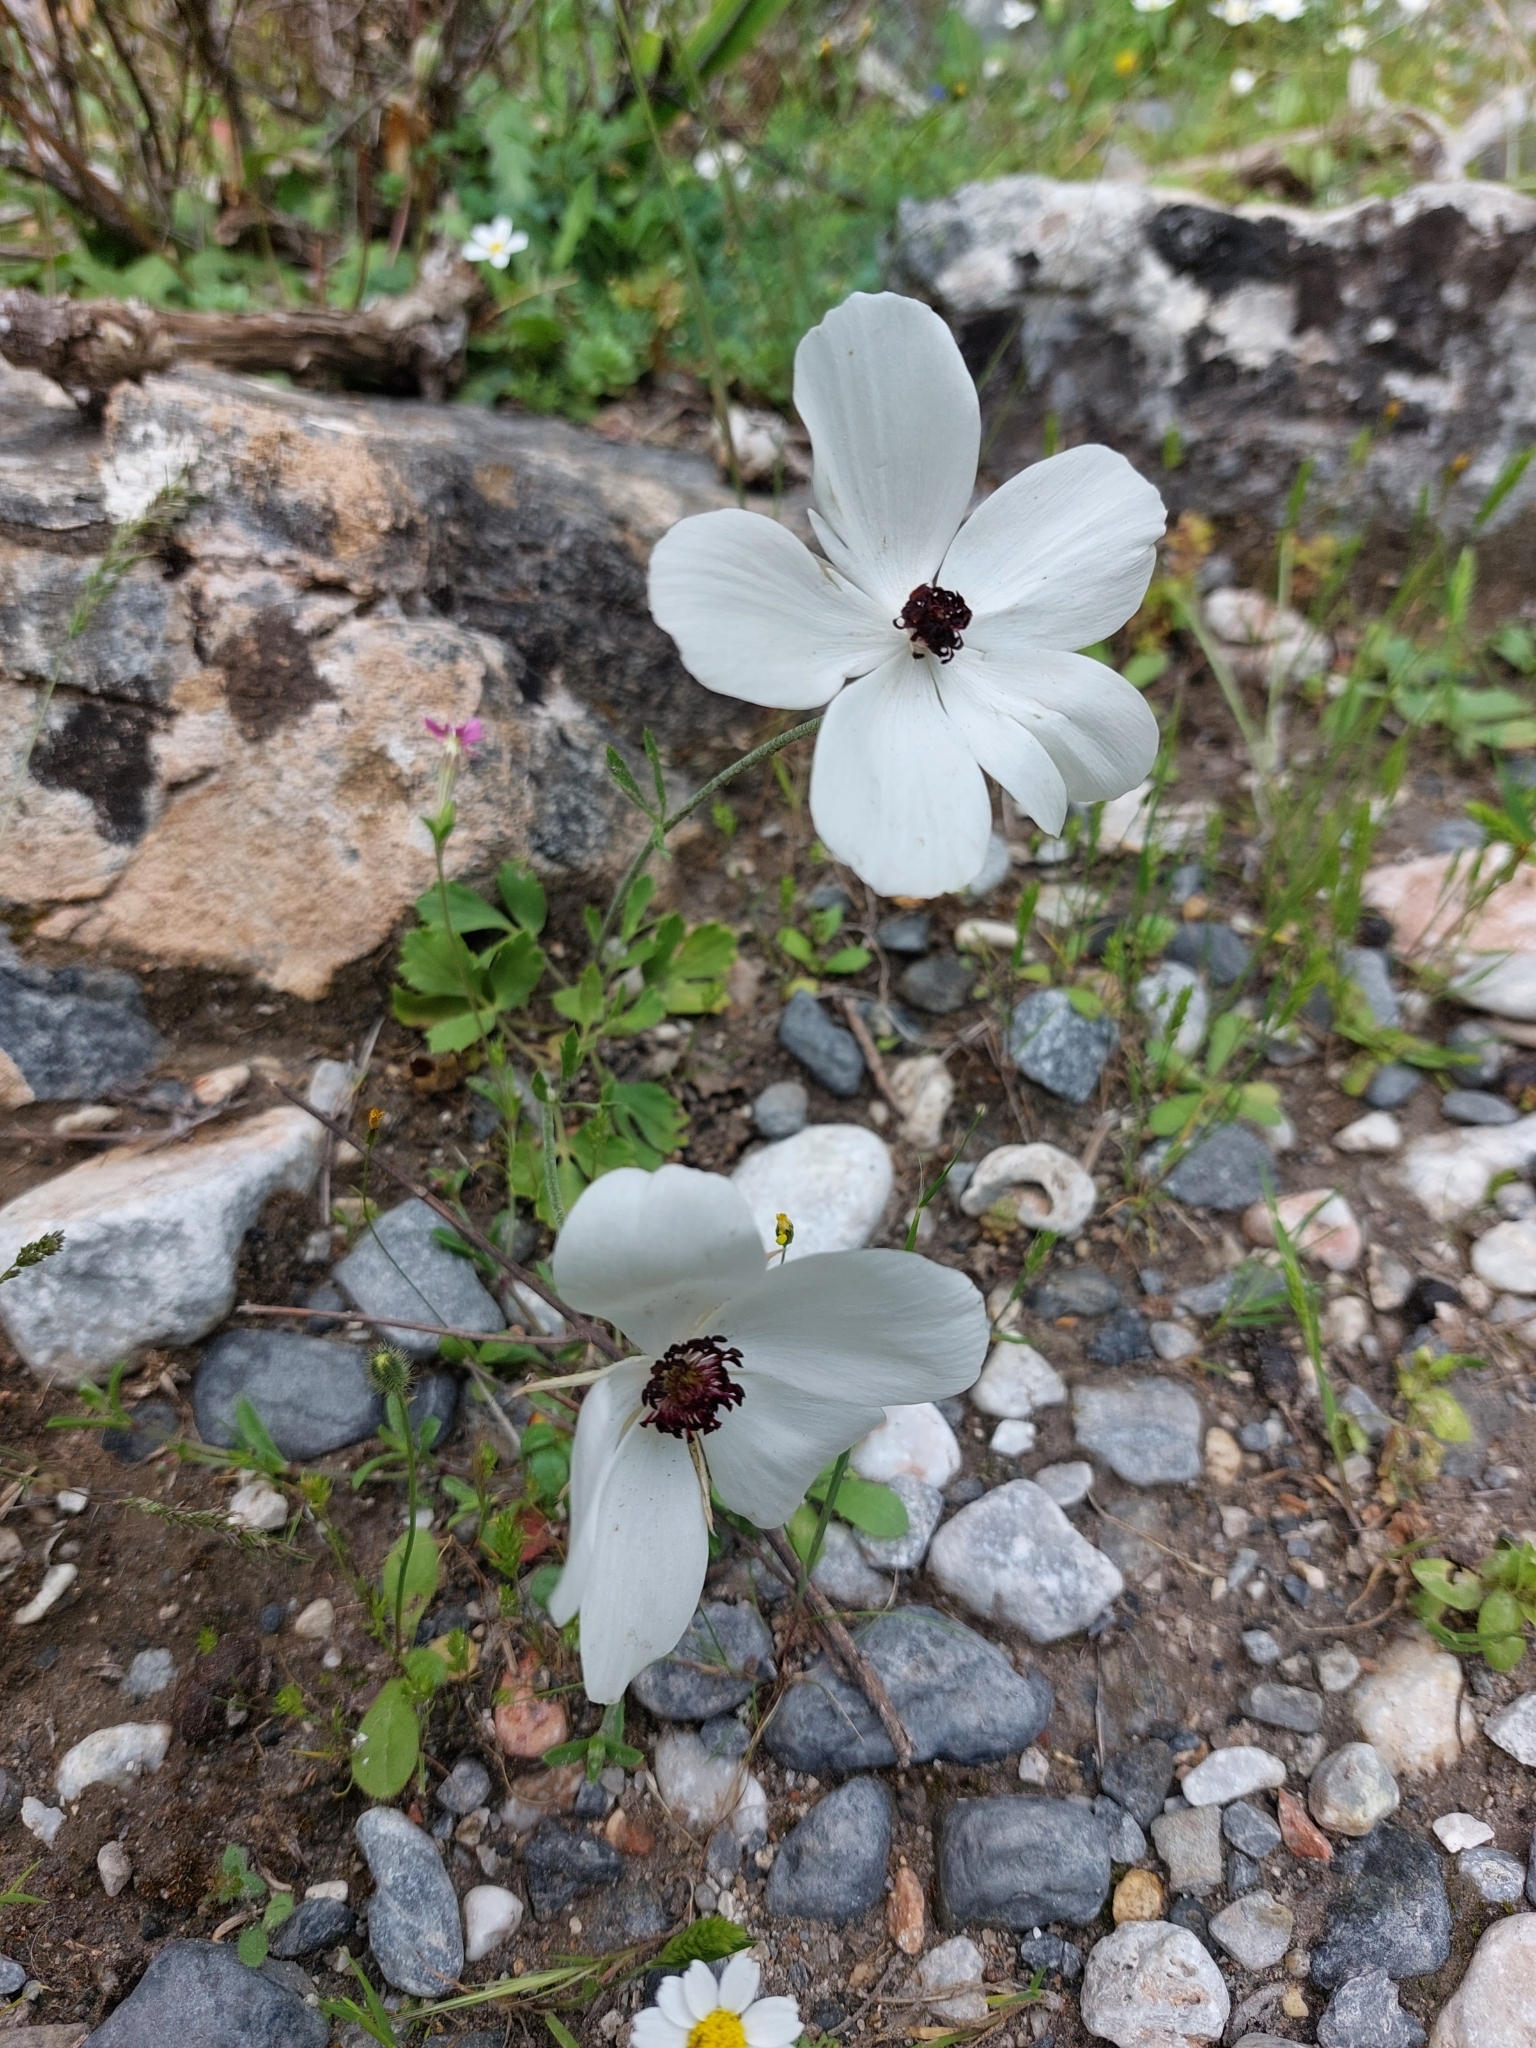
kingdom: Plantae
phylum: Tracheophyta
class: Magnoliopsida
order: Ranunculales
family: Ranunculaceae
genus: Anemone
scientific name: Anemone coronaria
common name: Poppy anemone
